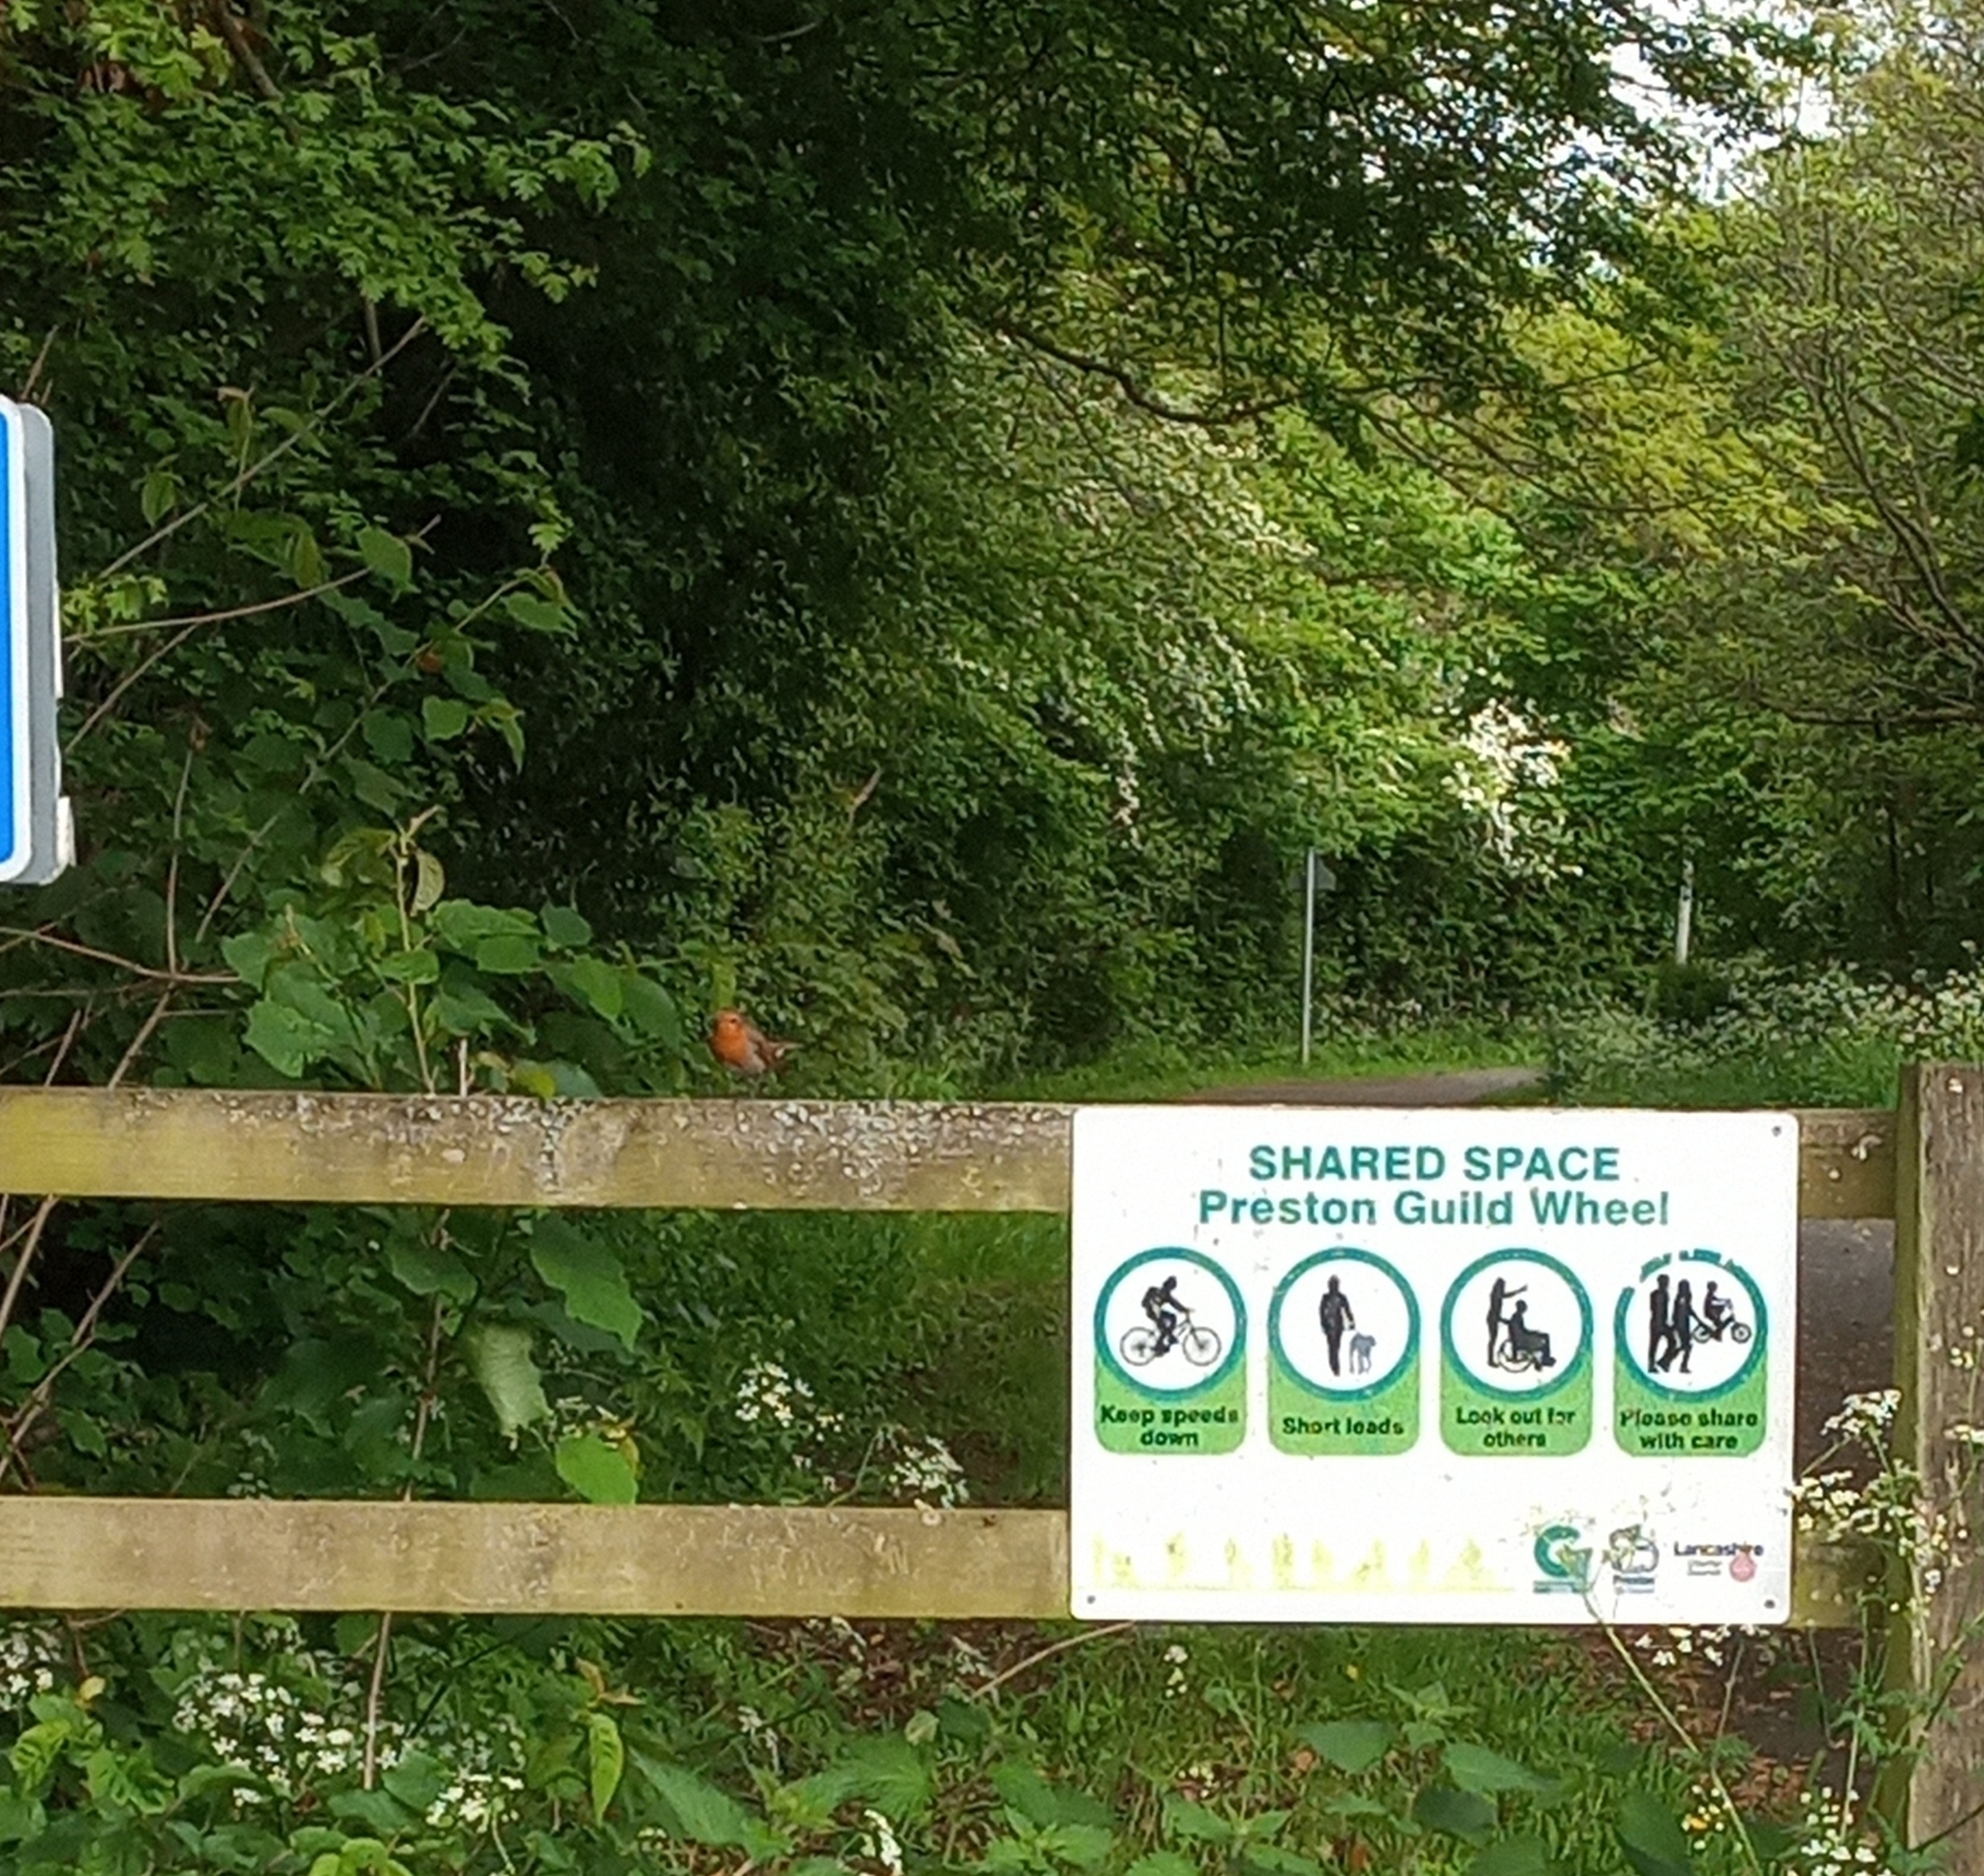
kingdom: Animalia
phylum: Chordata
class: Aves
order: Passeriformes
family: Muscicapidae
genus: Erithacus
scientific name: Erithacus rubecula
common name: European robin
